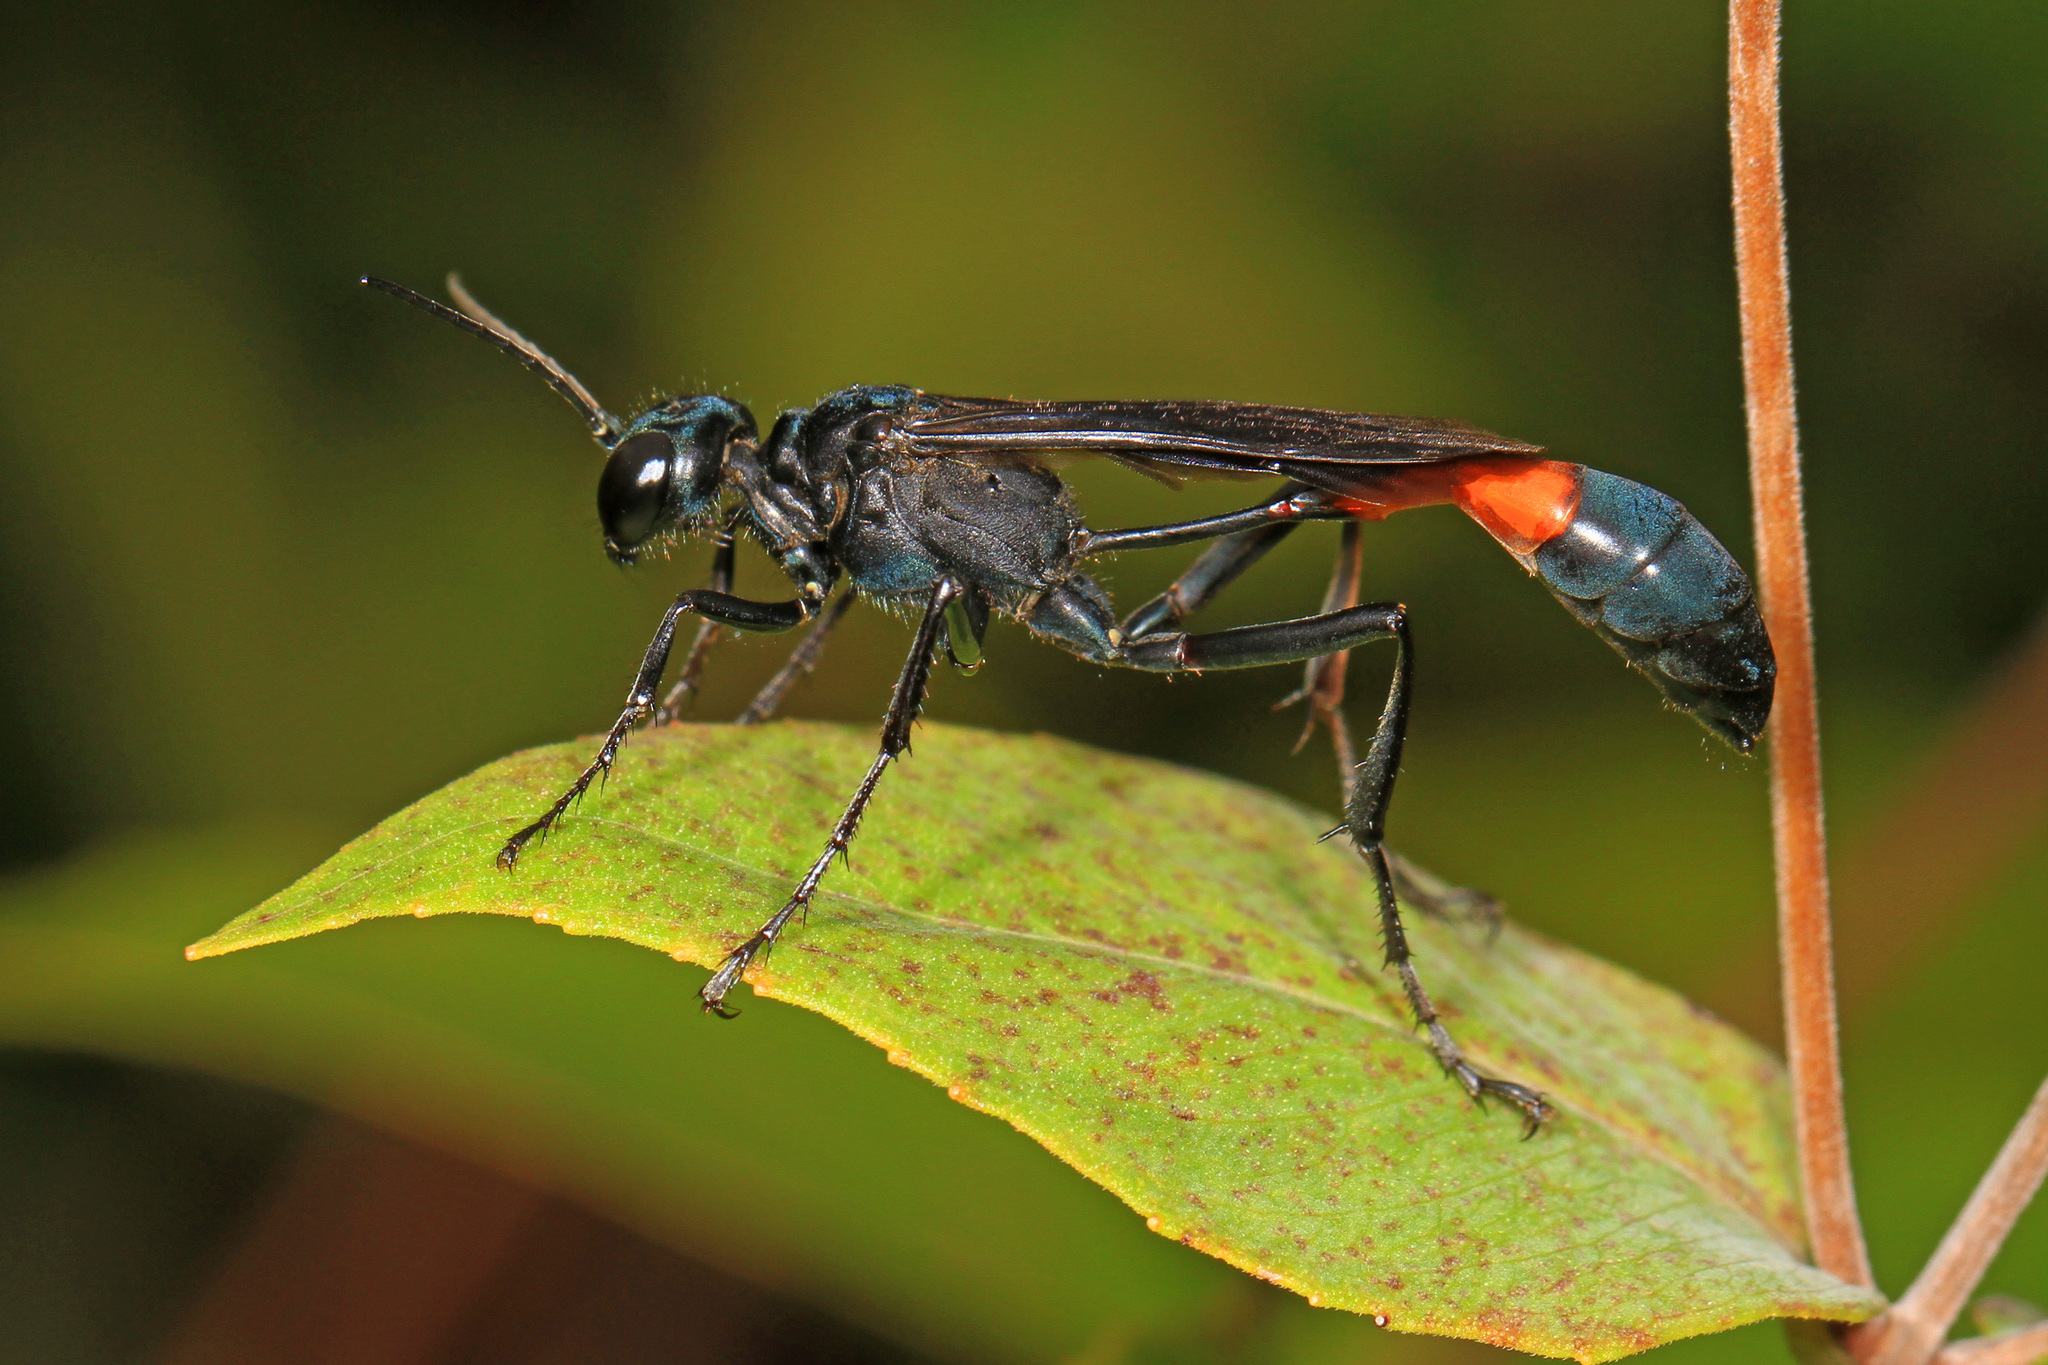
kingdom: Animalia
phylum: Arthropoda
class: Insecta
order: Hymenoptera
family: Sphecidae
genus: Ammophila
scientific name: Ammophila nigricans
